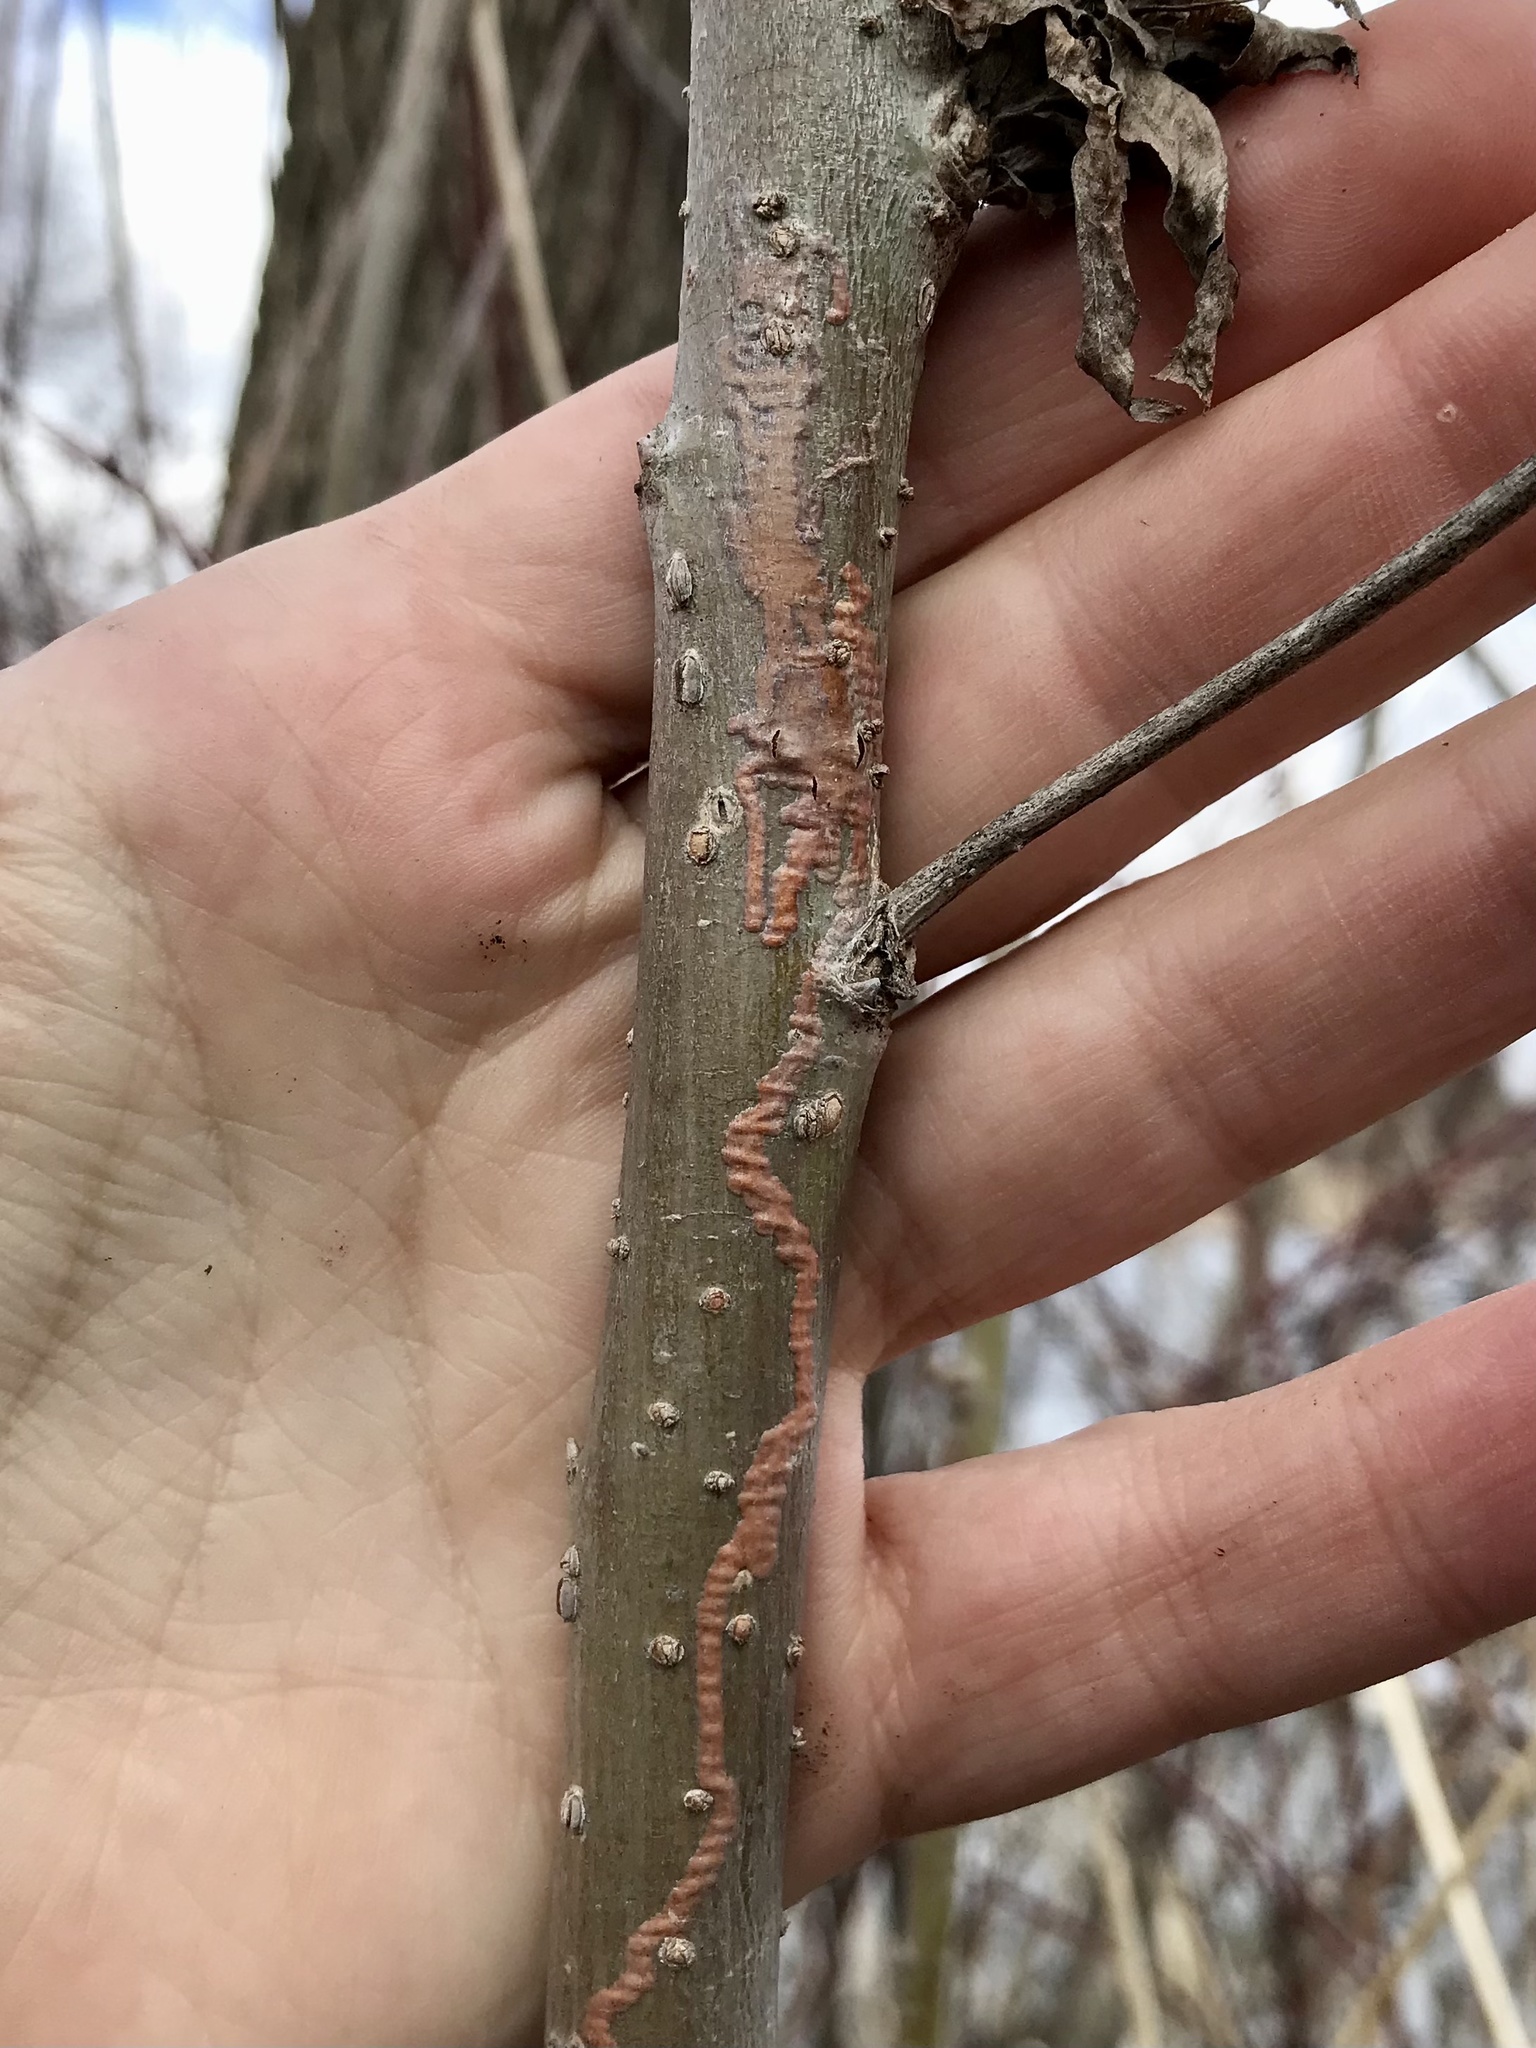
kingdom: Animalia
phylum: Arthropoda
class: Insecta
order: Lepidoptera
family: Gracillariidae
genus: Marmara
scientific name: Marmara salictella
